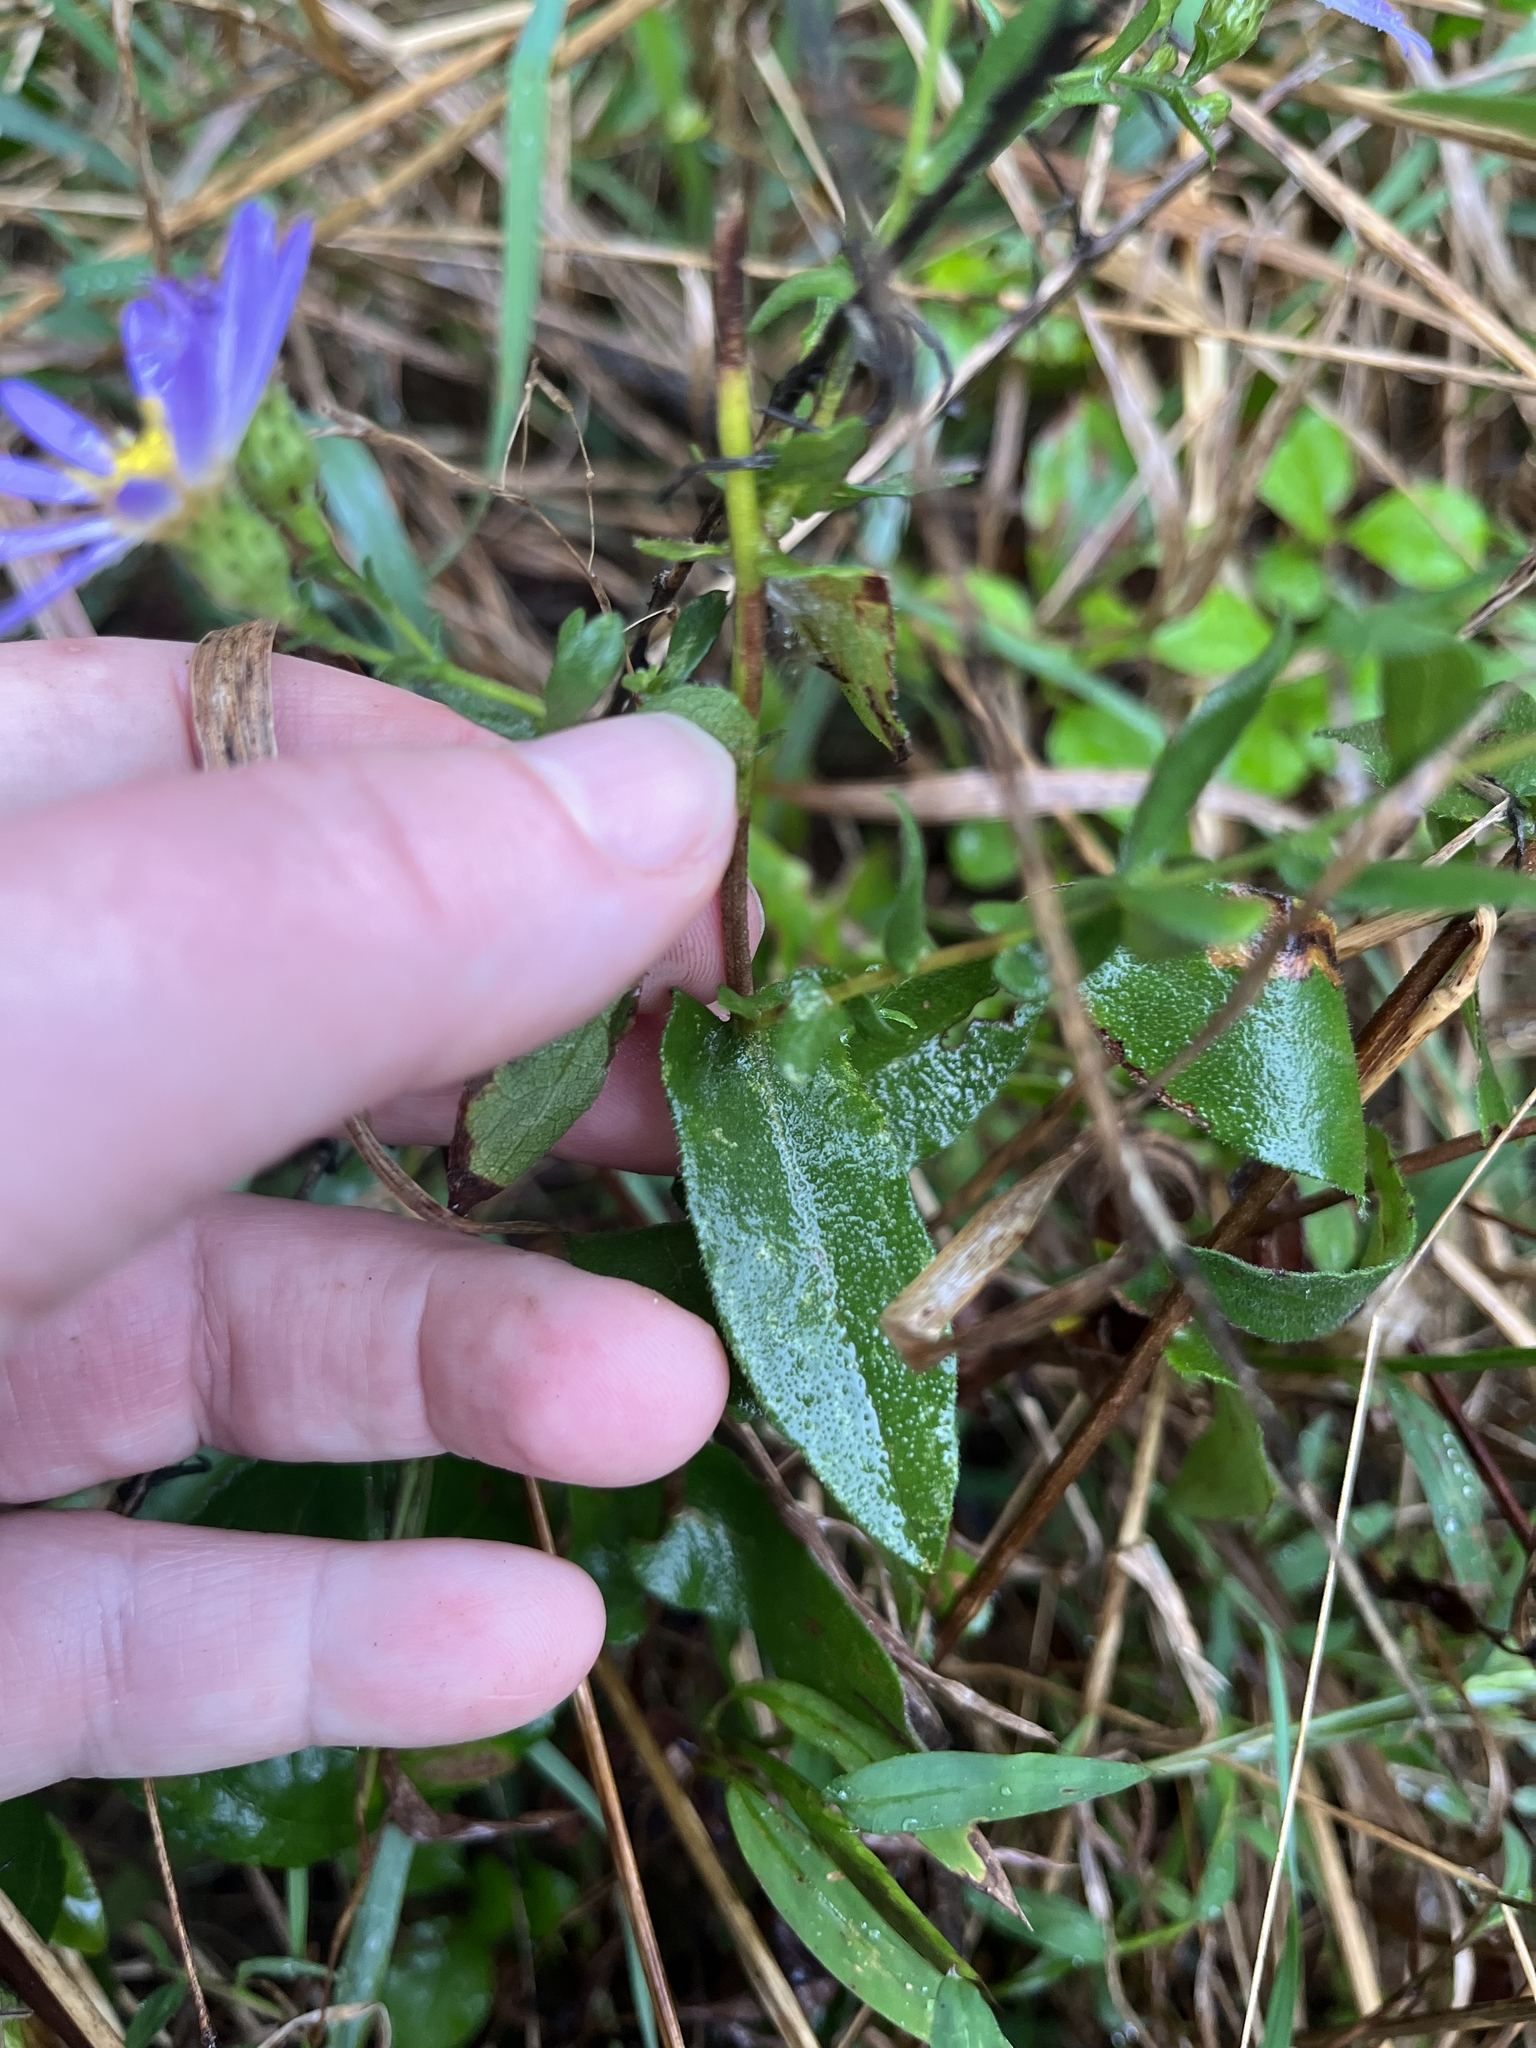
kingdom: Plantae
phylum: Tracheophyta
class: Magnoliopsida
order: Asterales
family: Asteraceae
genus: Symphyotrichum
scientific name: Symphyotrichum patens
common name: Late purple aster
